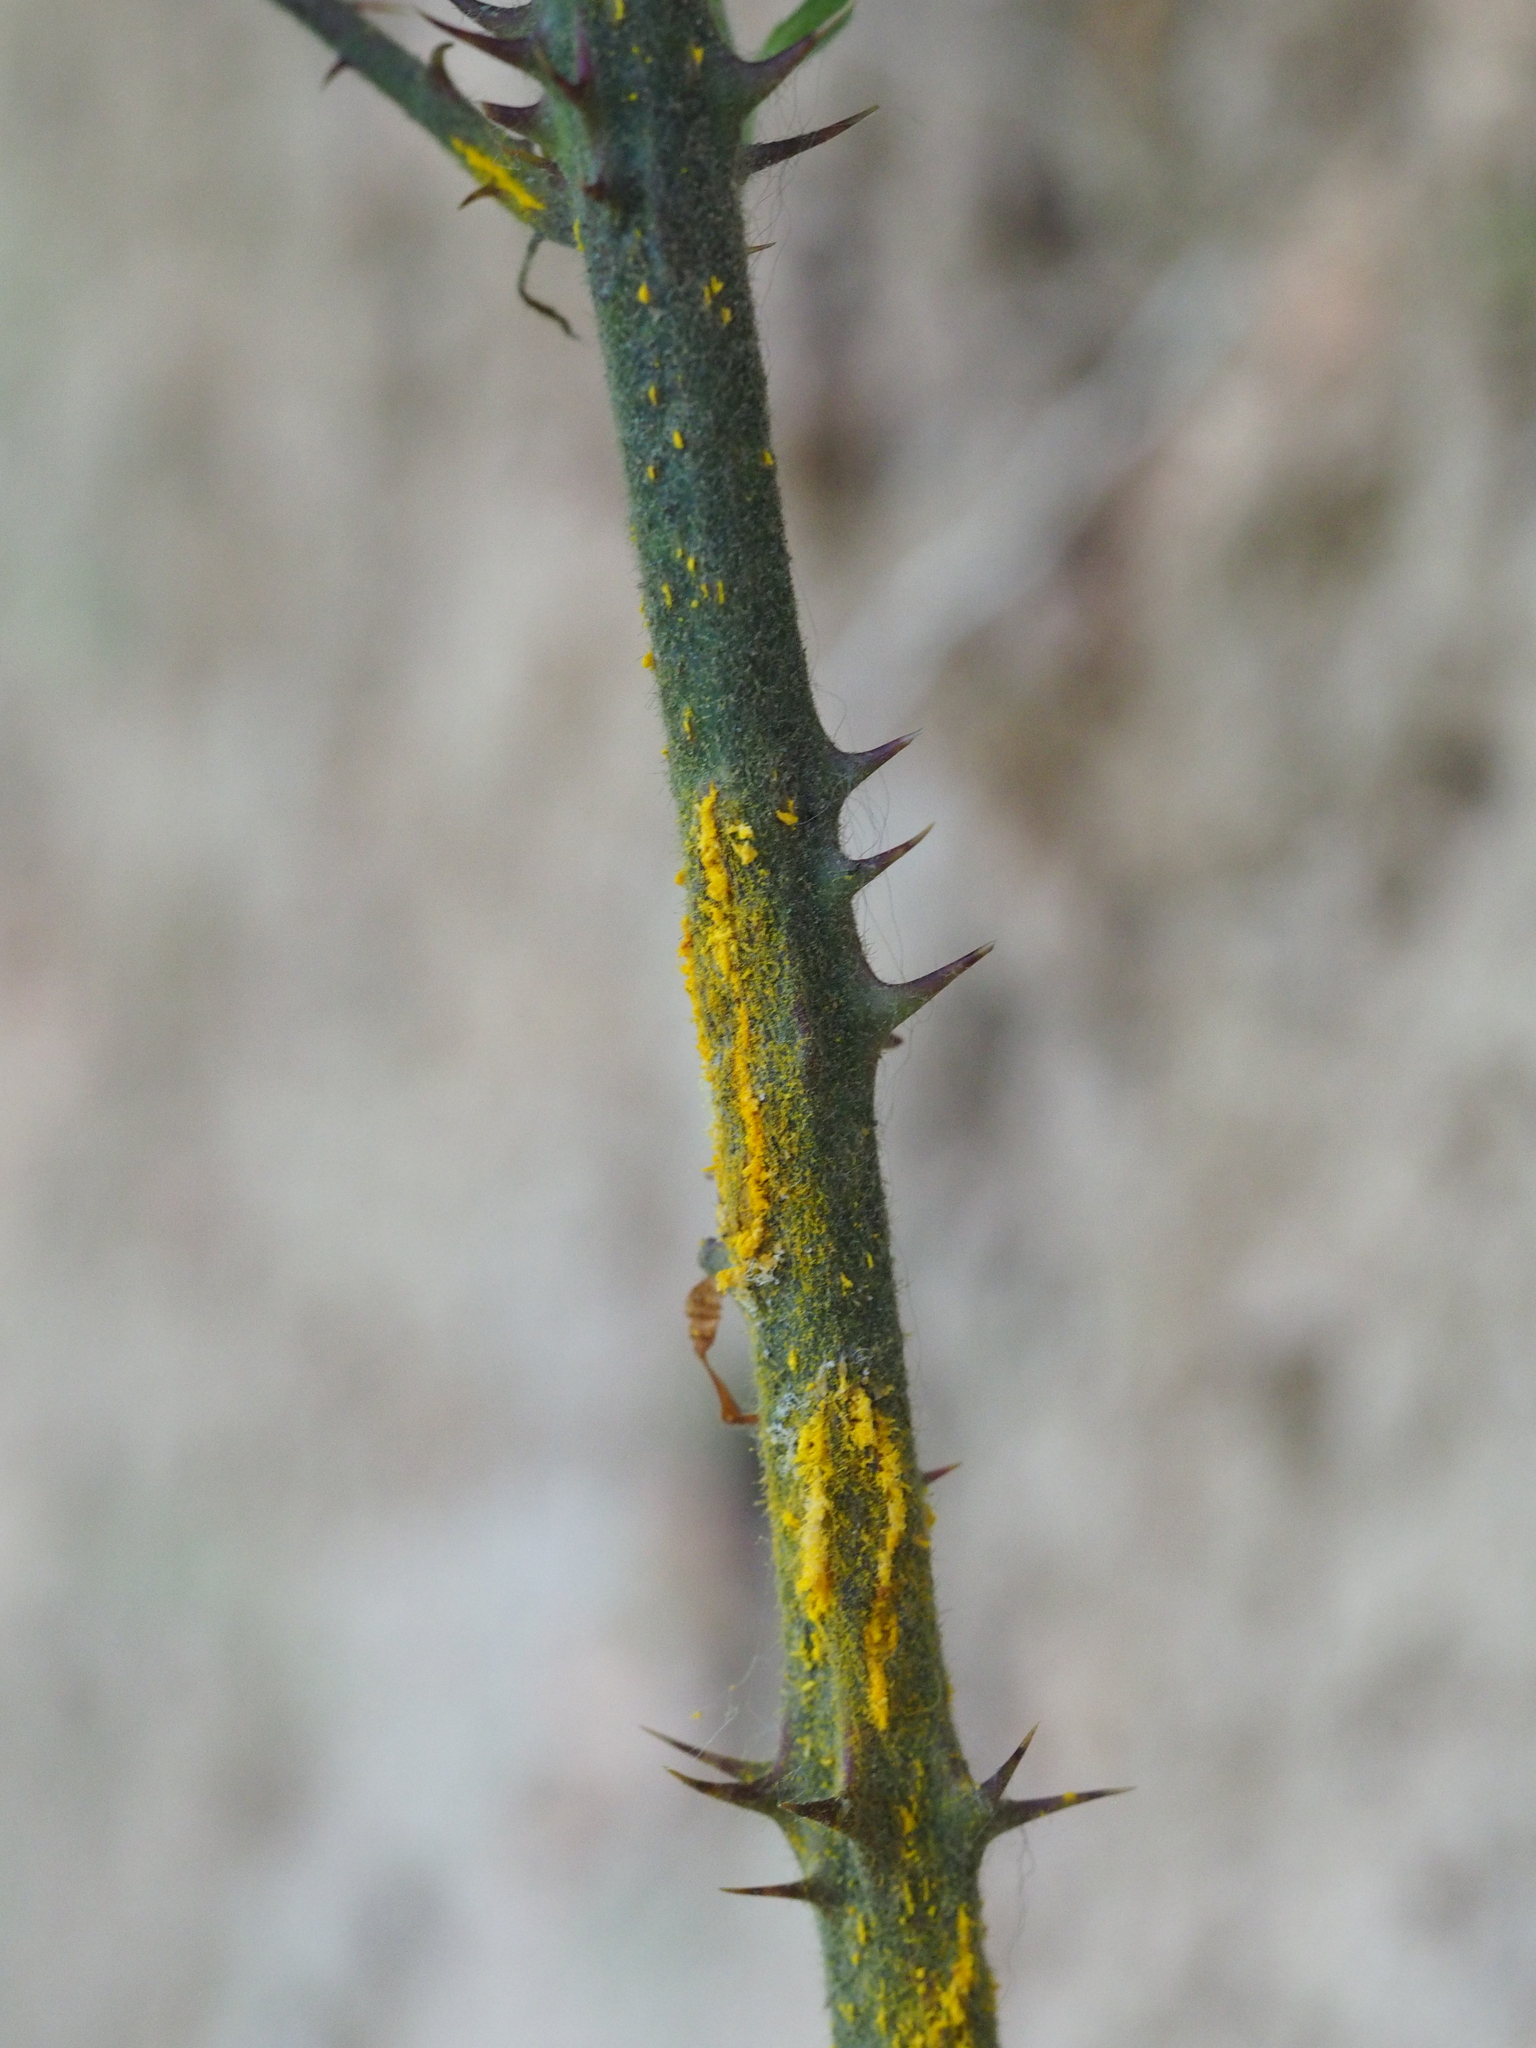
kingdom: Fungi
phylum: Basidiomycota
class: Pucciniomycetes
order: Pucciniales
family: Phragmidiaceae
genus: Kuehneola
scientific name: Kuehneola uredinis
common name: Bramble stem rust
